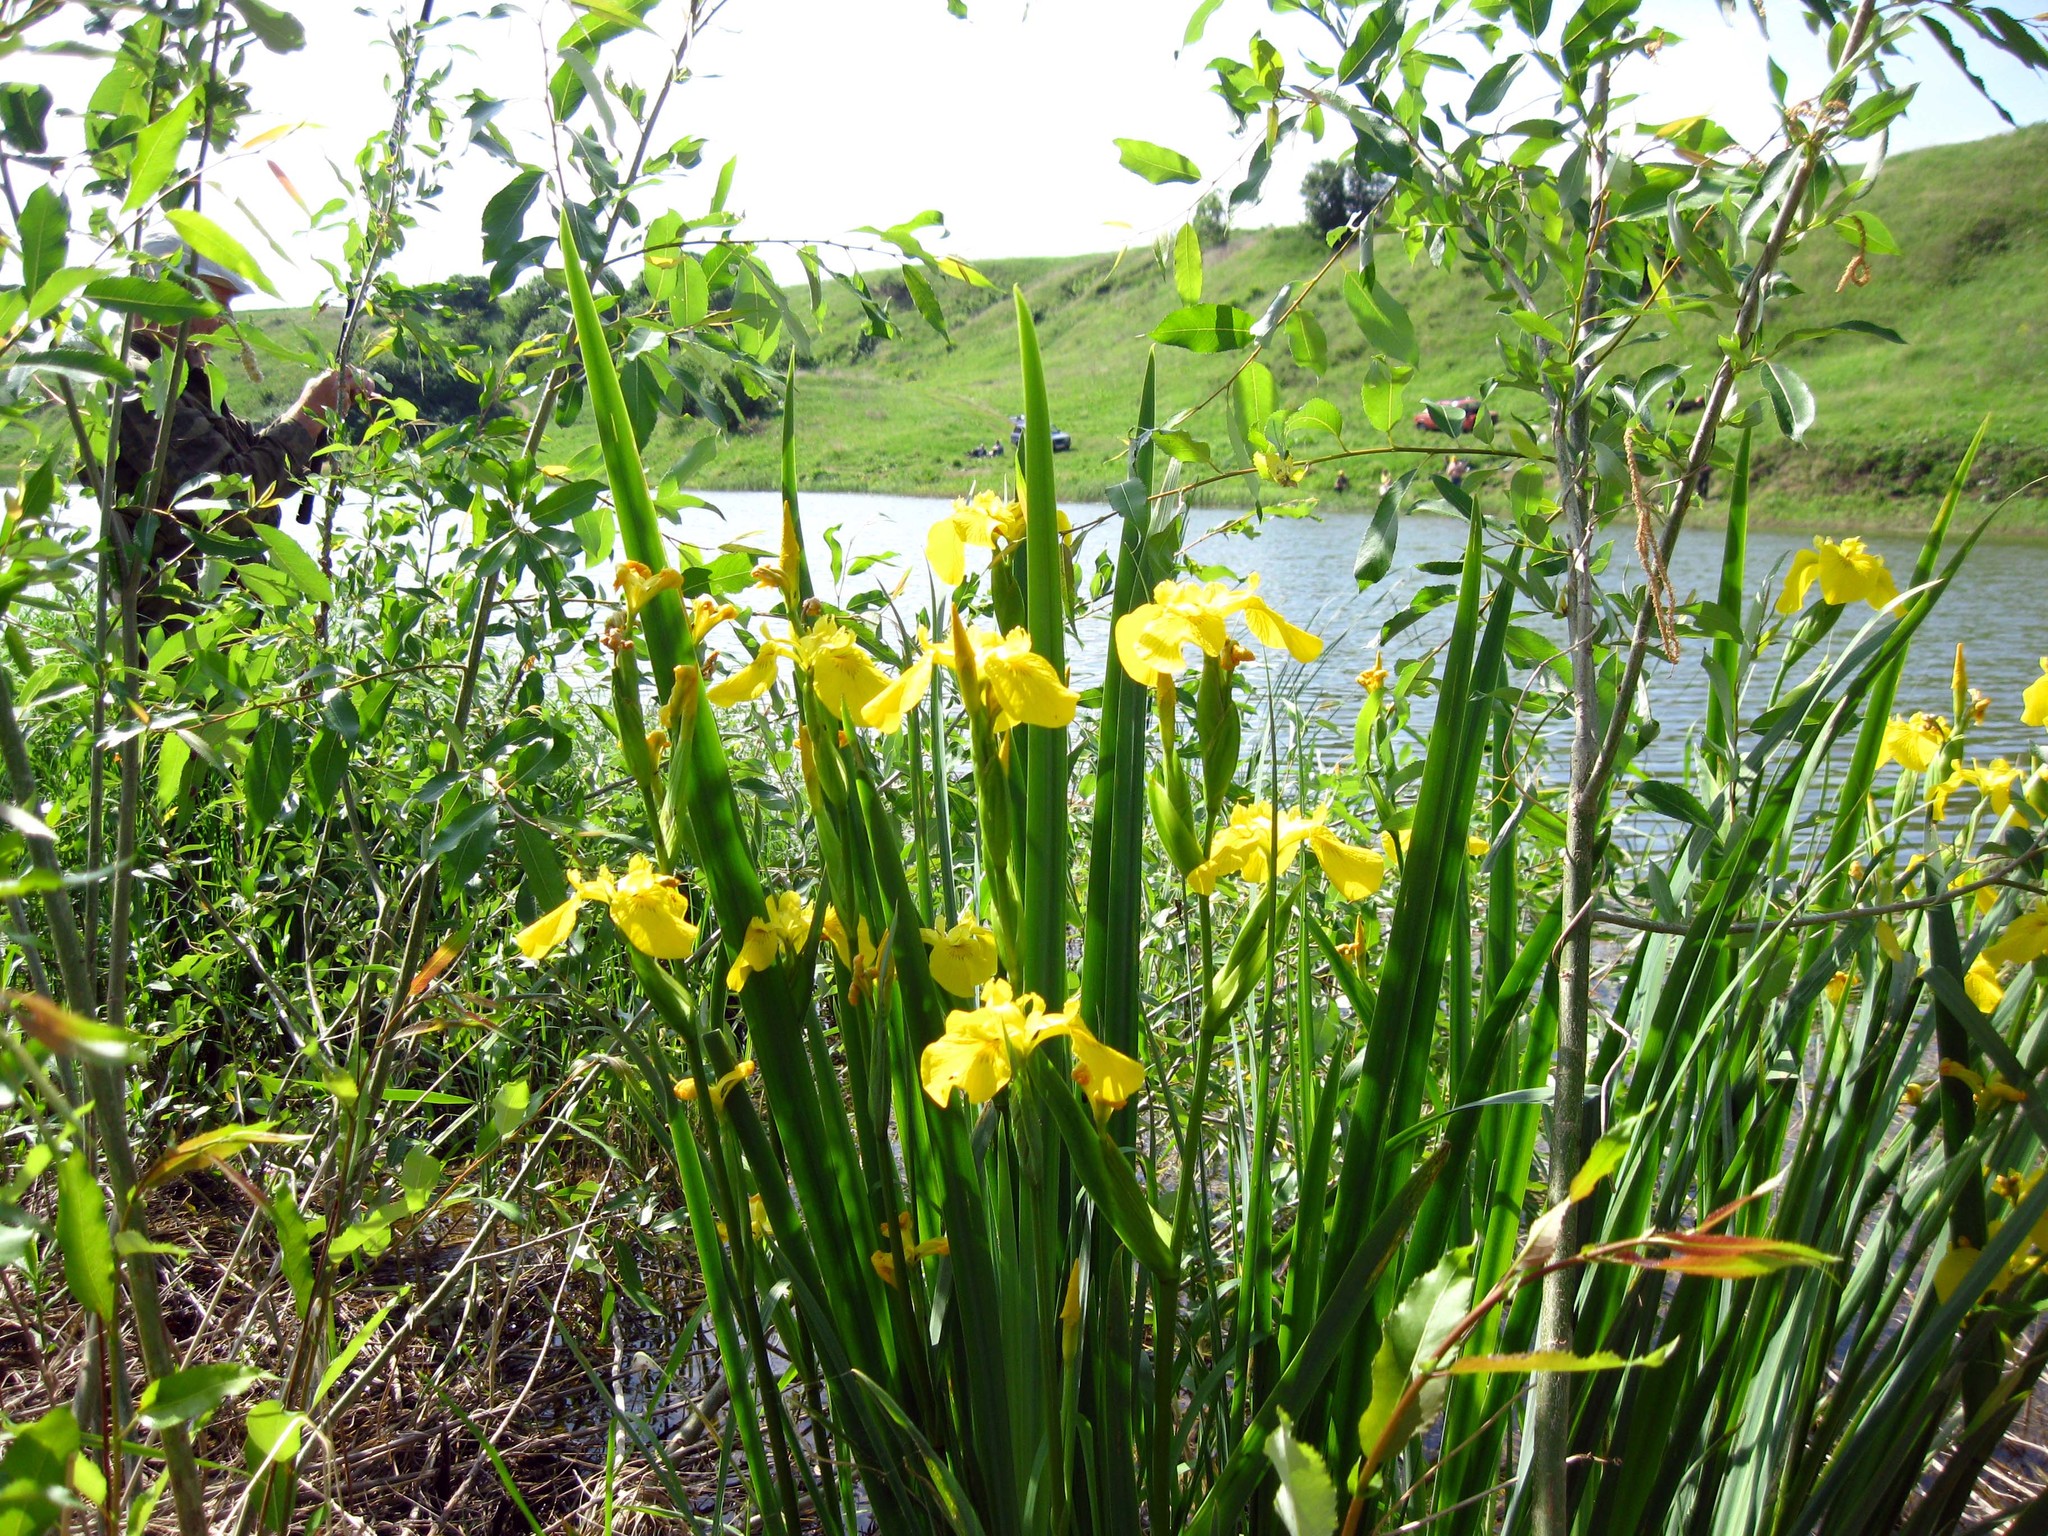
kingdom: Plantae
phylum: Tracheophyta
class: Liliopsida
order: Asparagales
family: Iridaceae
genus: Iris
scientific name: Iris pseudacorus
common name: Yellow flag
